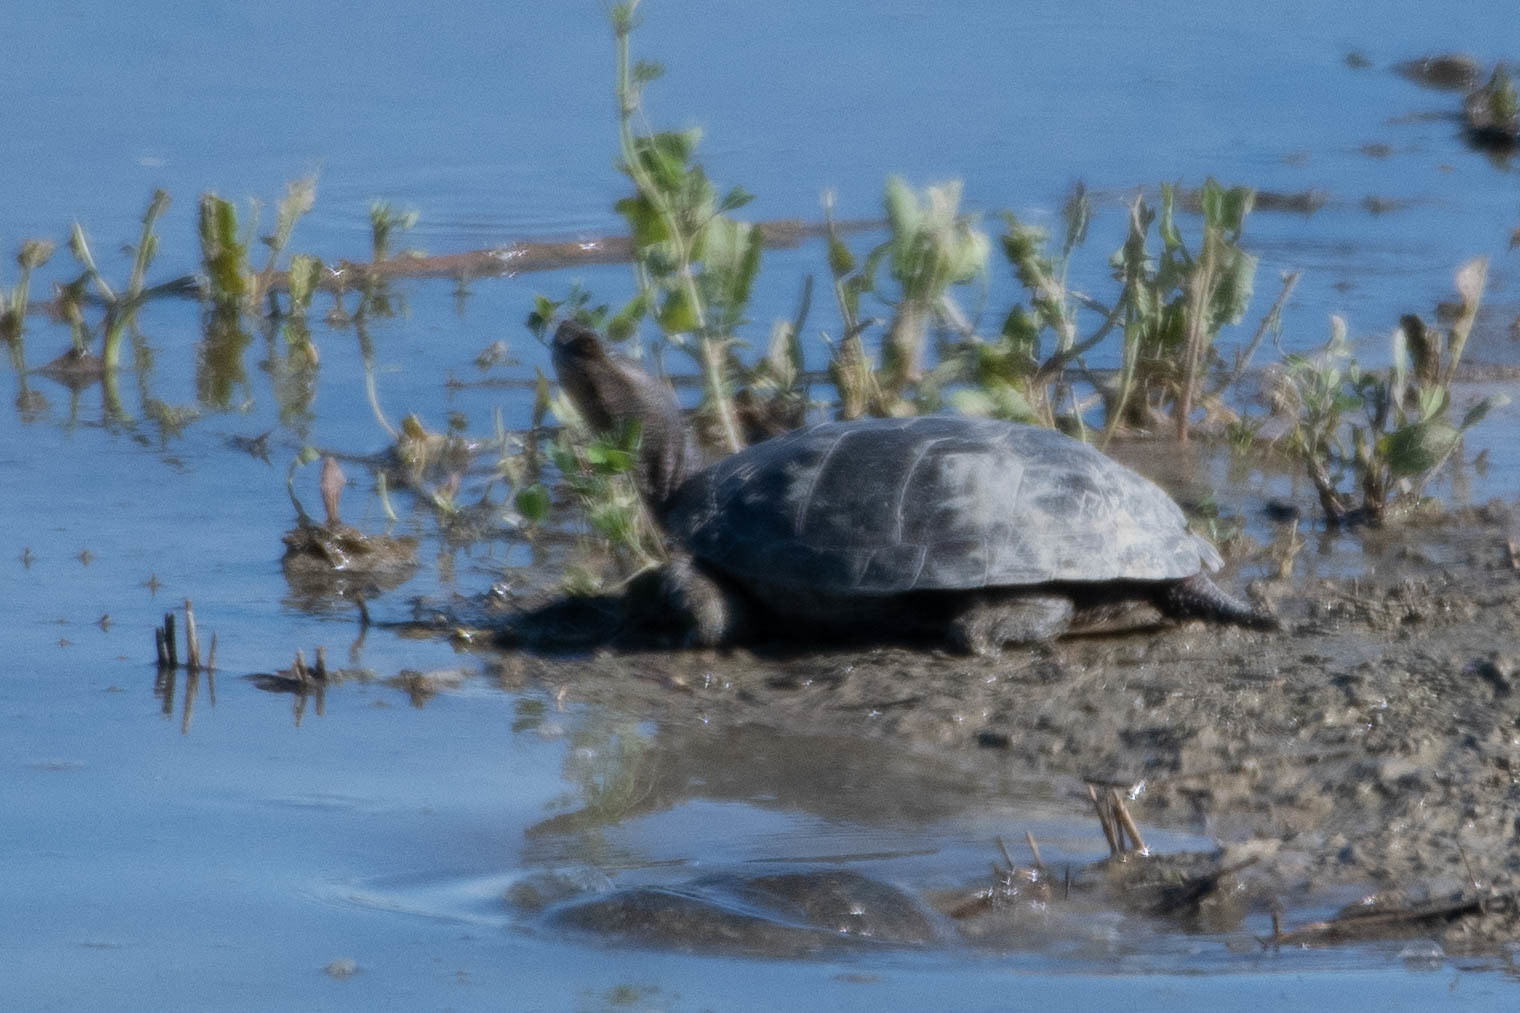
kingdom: Animalia
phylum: Chordata
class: Testudines
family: Emydidae
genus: Actinemys
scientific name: Actinemys marmorata
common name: Western pond turtle
